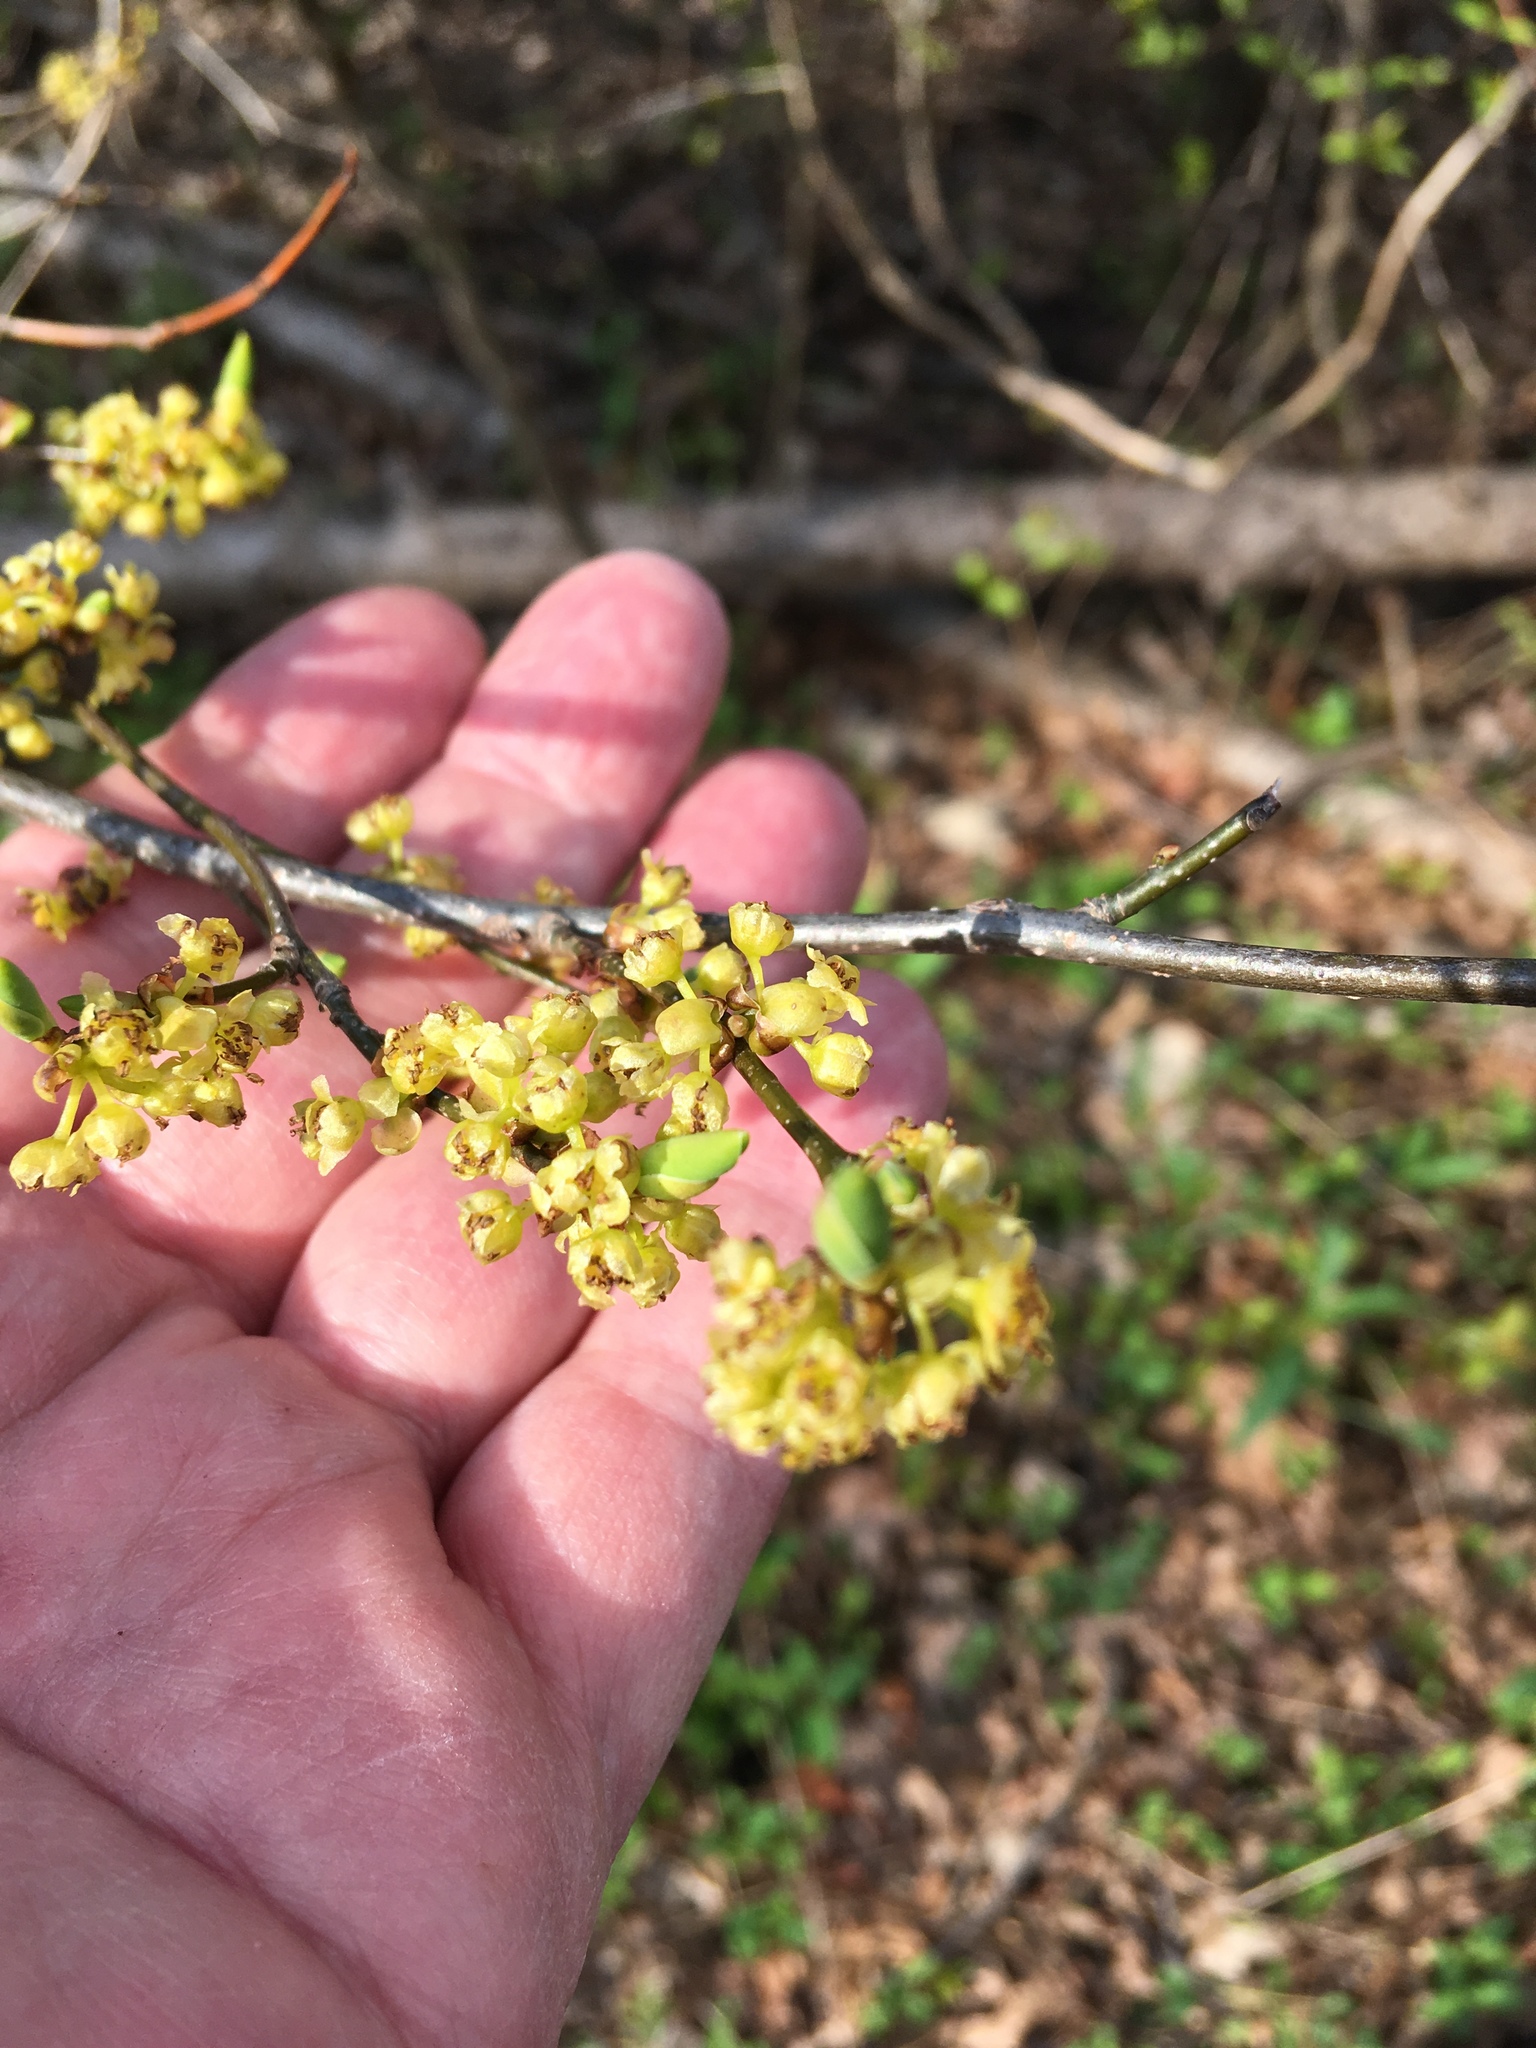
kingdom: Plantae
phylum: Tracheophyta
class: Magnoliopsida
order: Laurales
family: Lauraceae
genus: Lindera
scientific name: Lindera benzoin
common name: Spicebush
